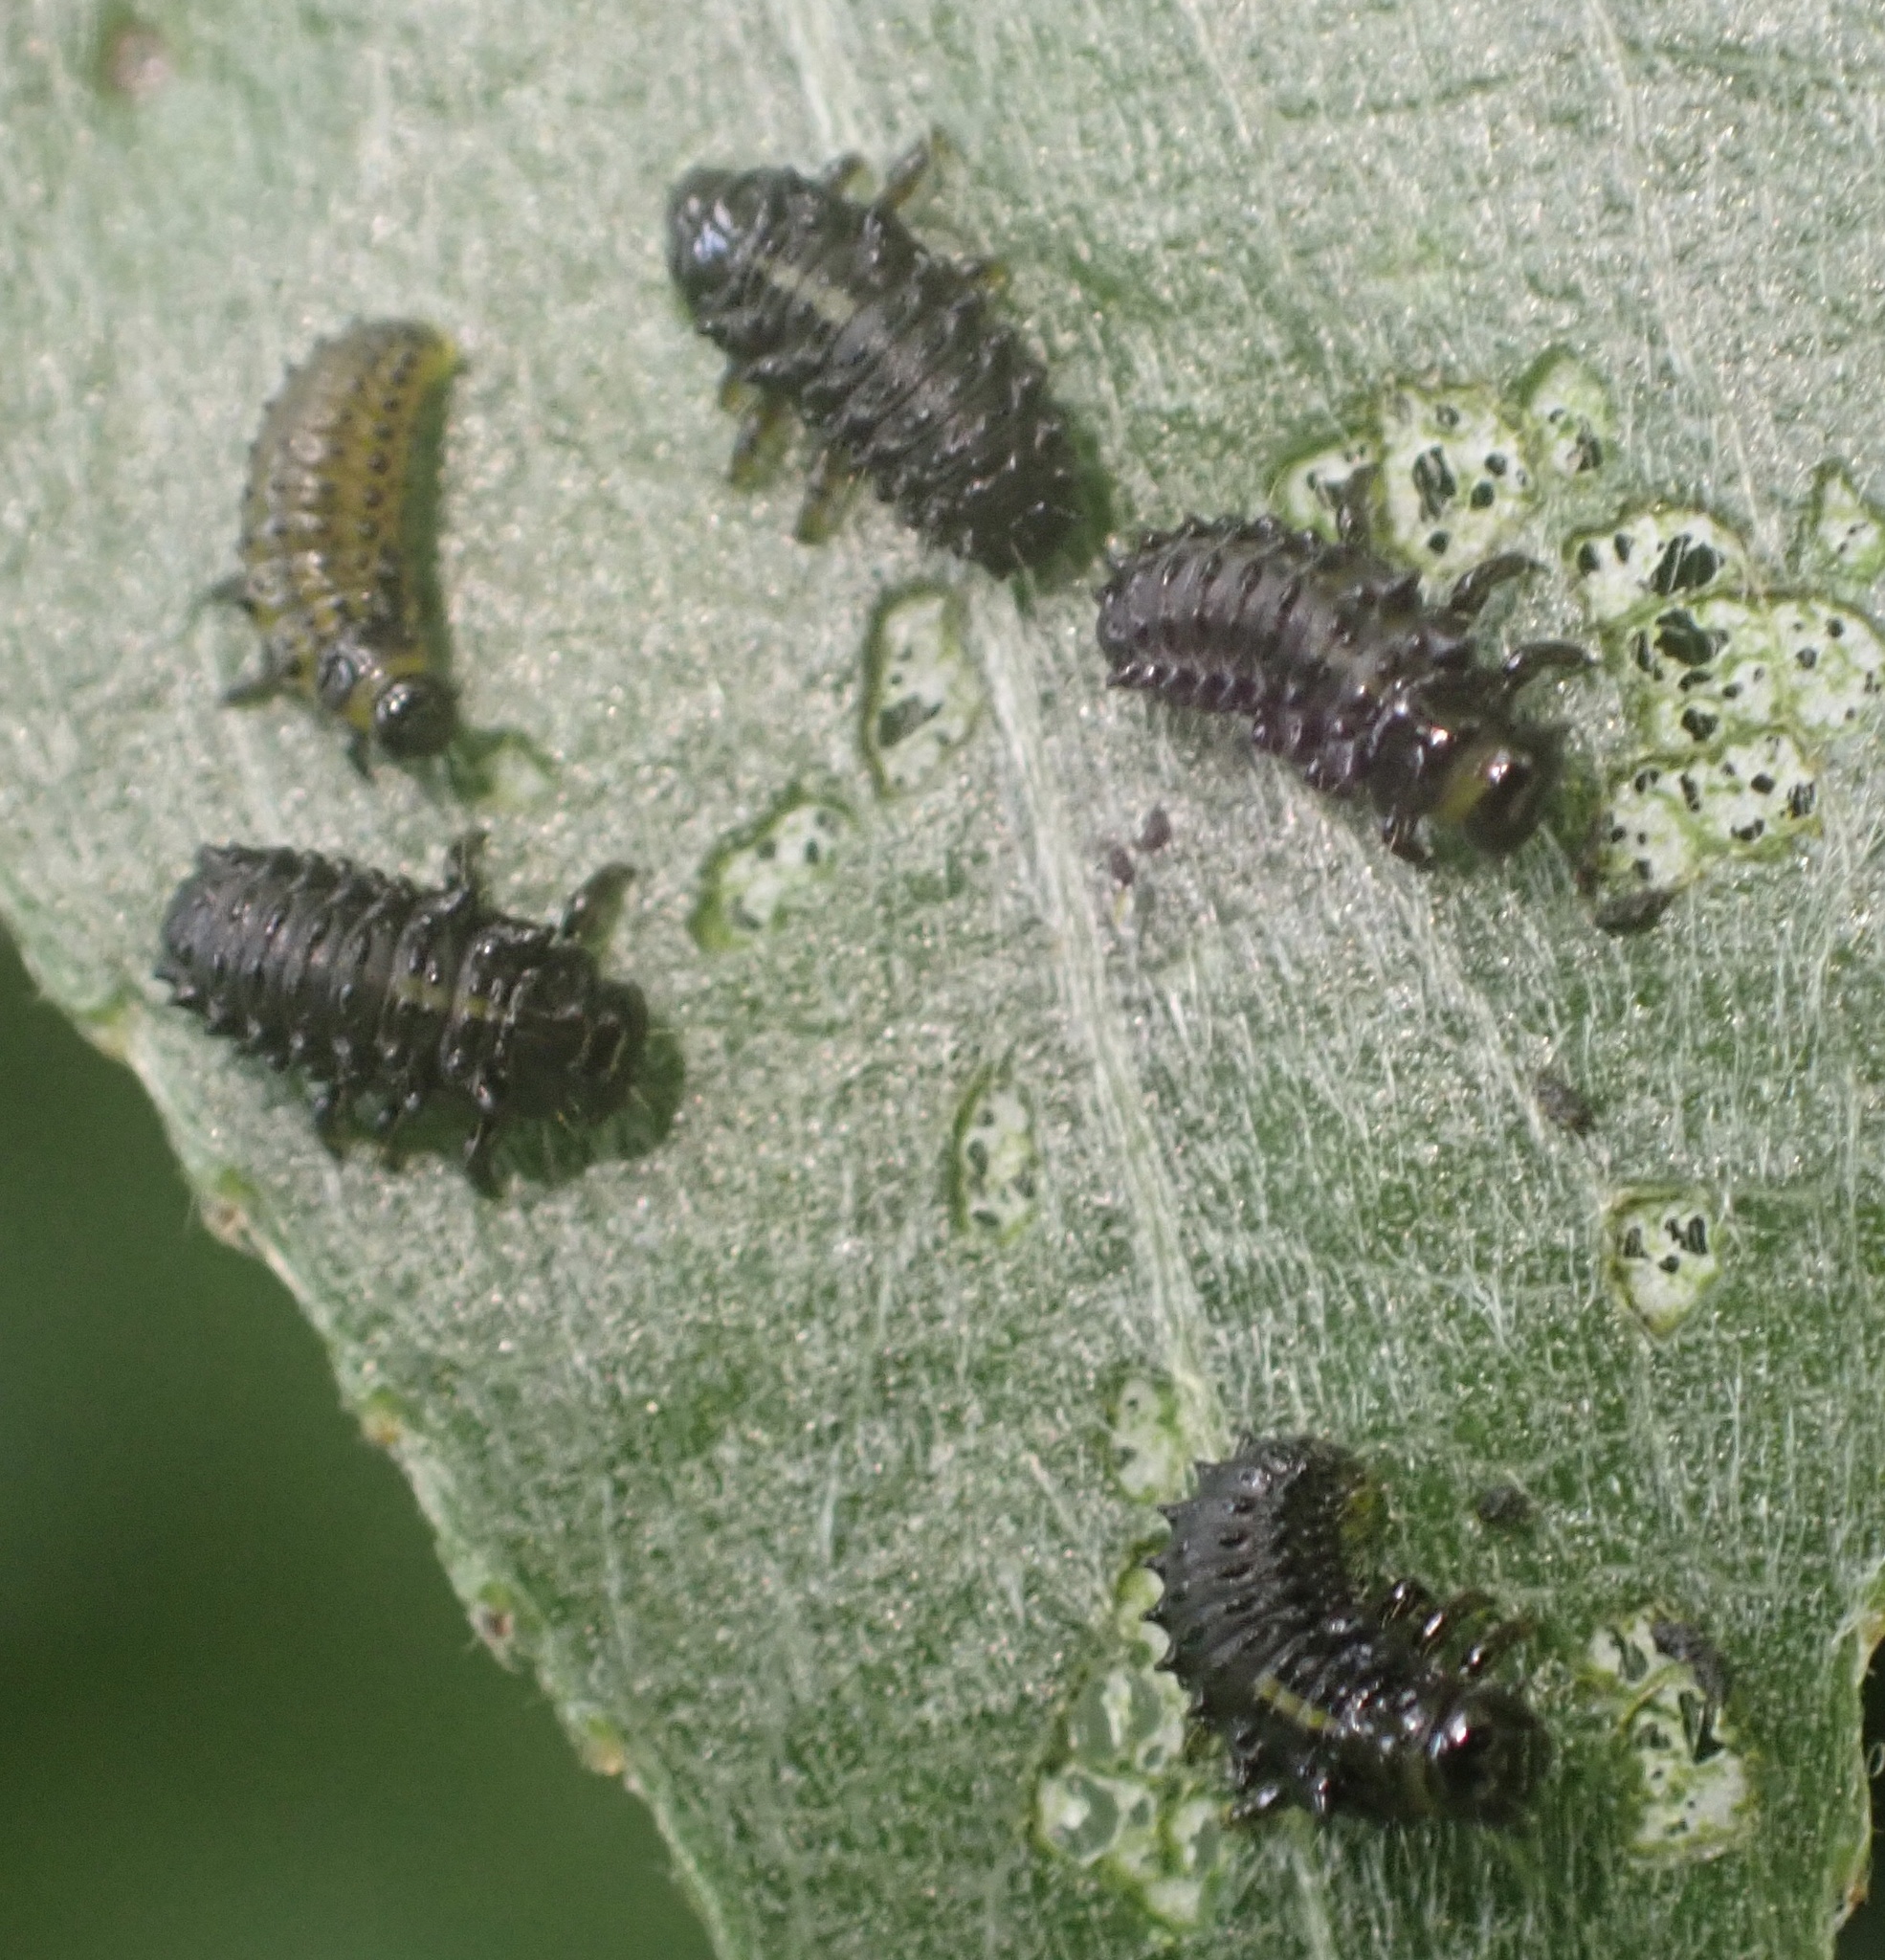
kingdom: Animalia
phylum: Arthropoda
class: Insecta
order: Coleoptera
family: Chrysomelidae
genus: Plagiodera
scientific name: Plagiodera versicolora
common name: Imported willow leaf beetle
